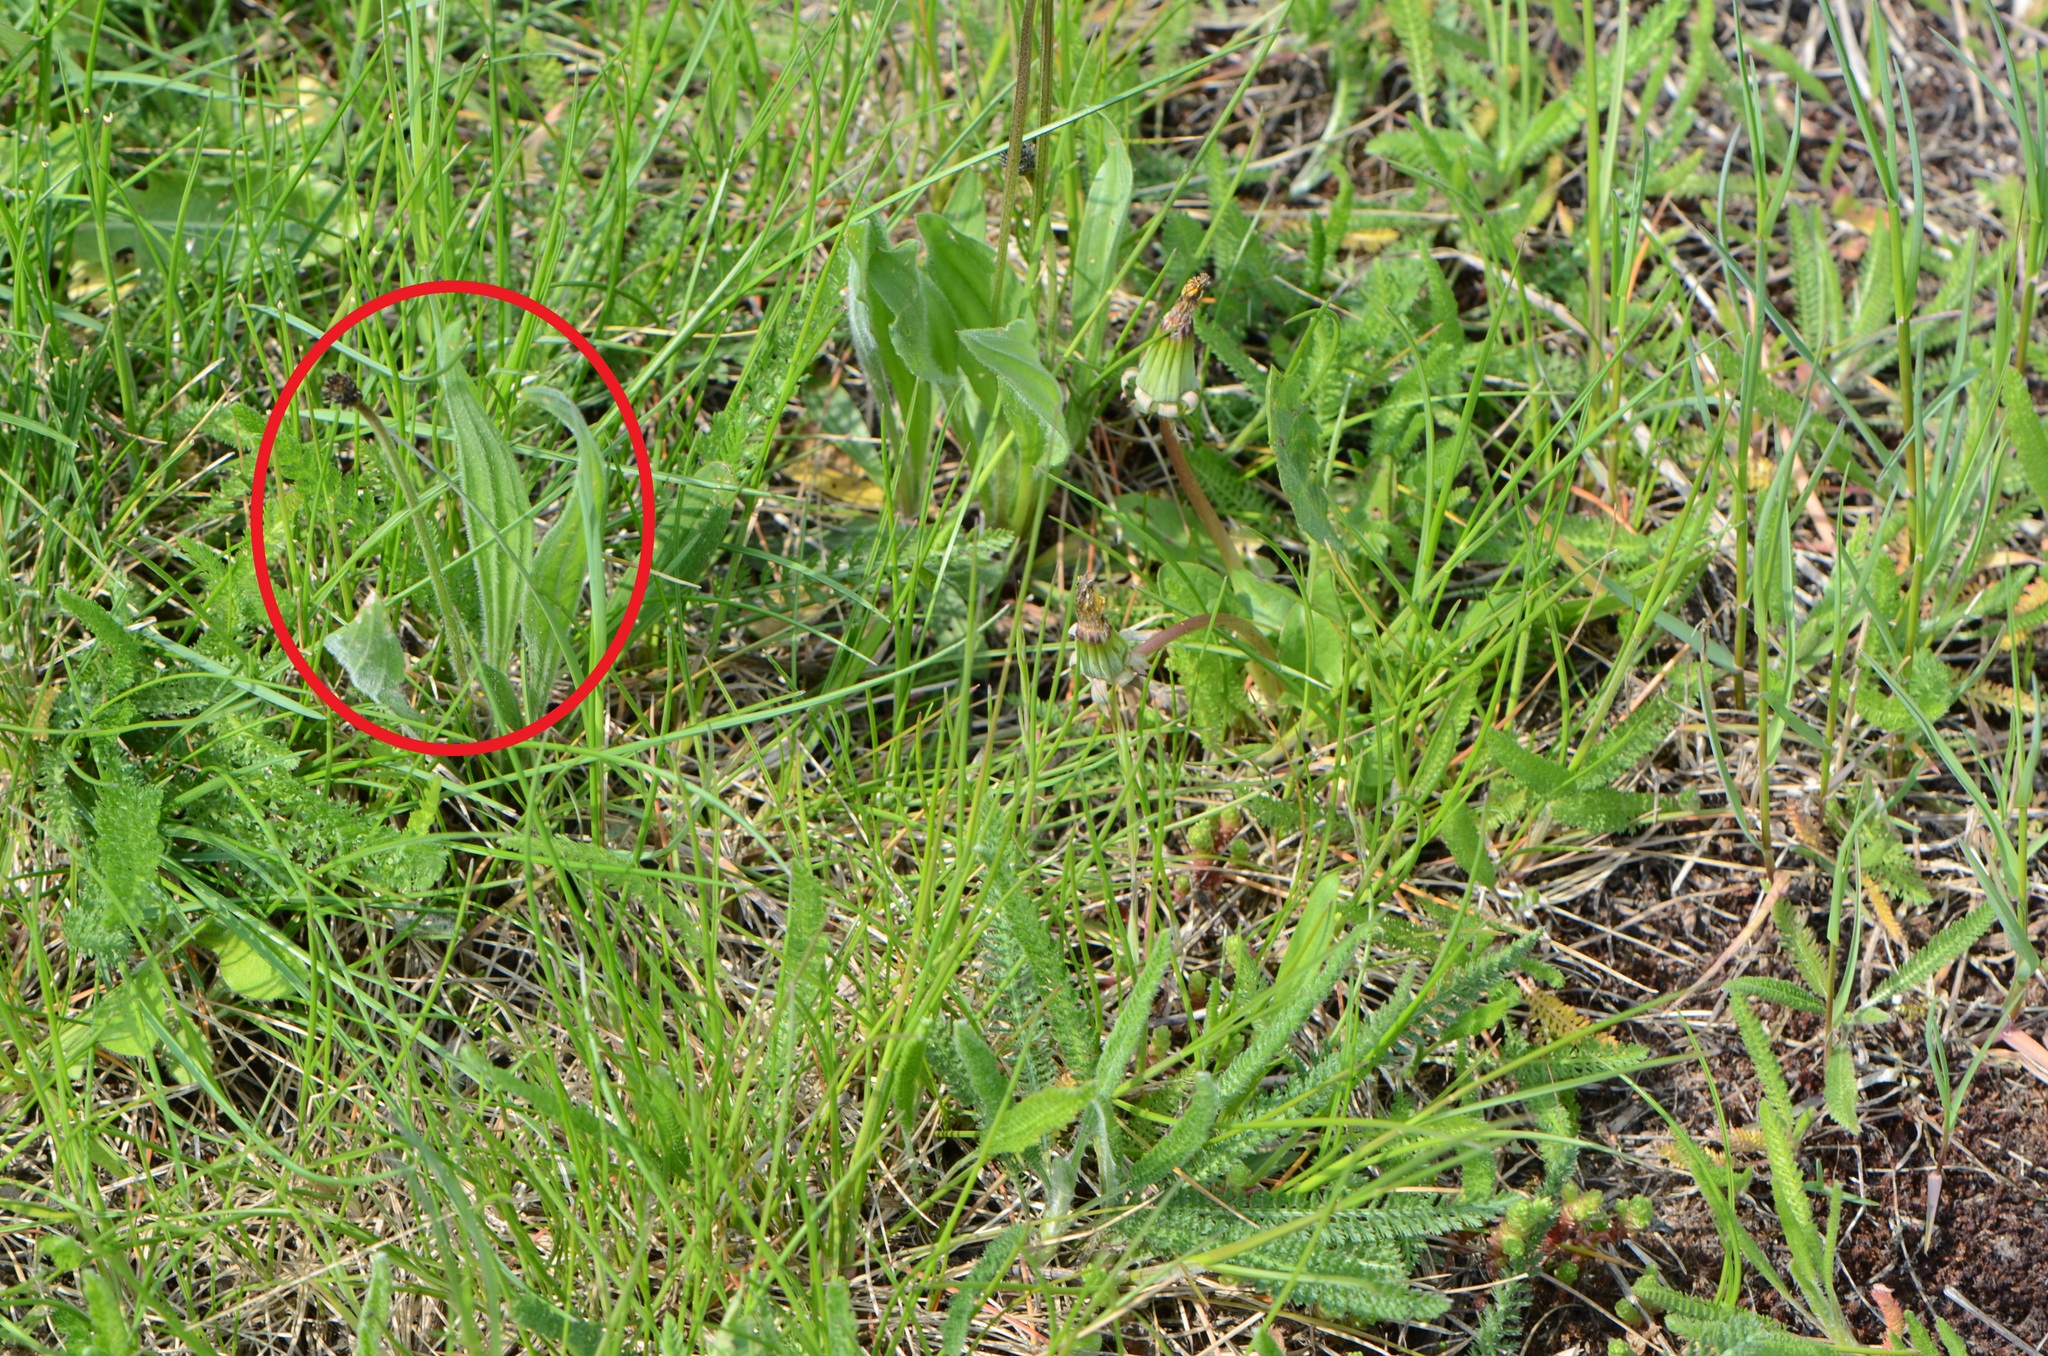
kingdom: Plantae
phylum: Tracheophyta
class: Magnoliopsida
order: Lamiales
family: Plantaginaceae
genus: Plantago
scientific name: Plantago lanceolata
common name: Ribwort plantain
